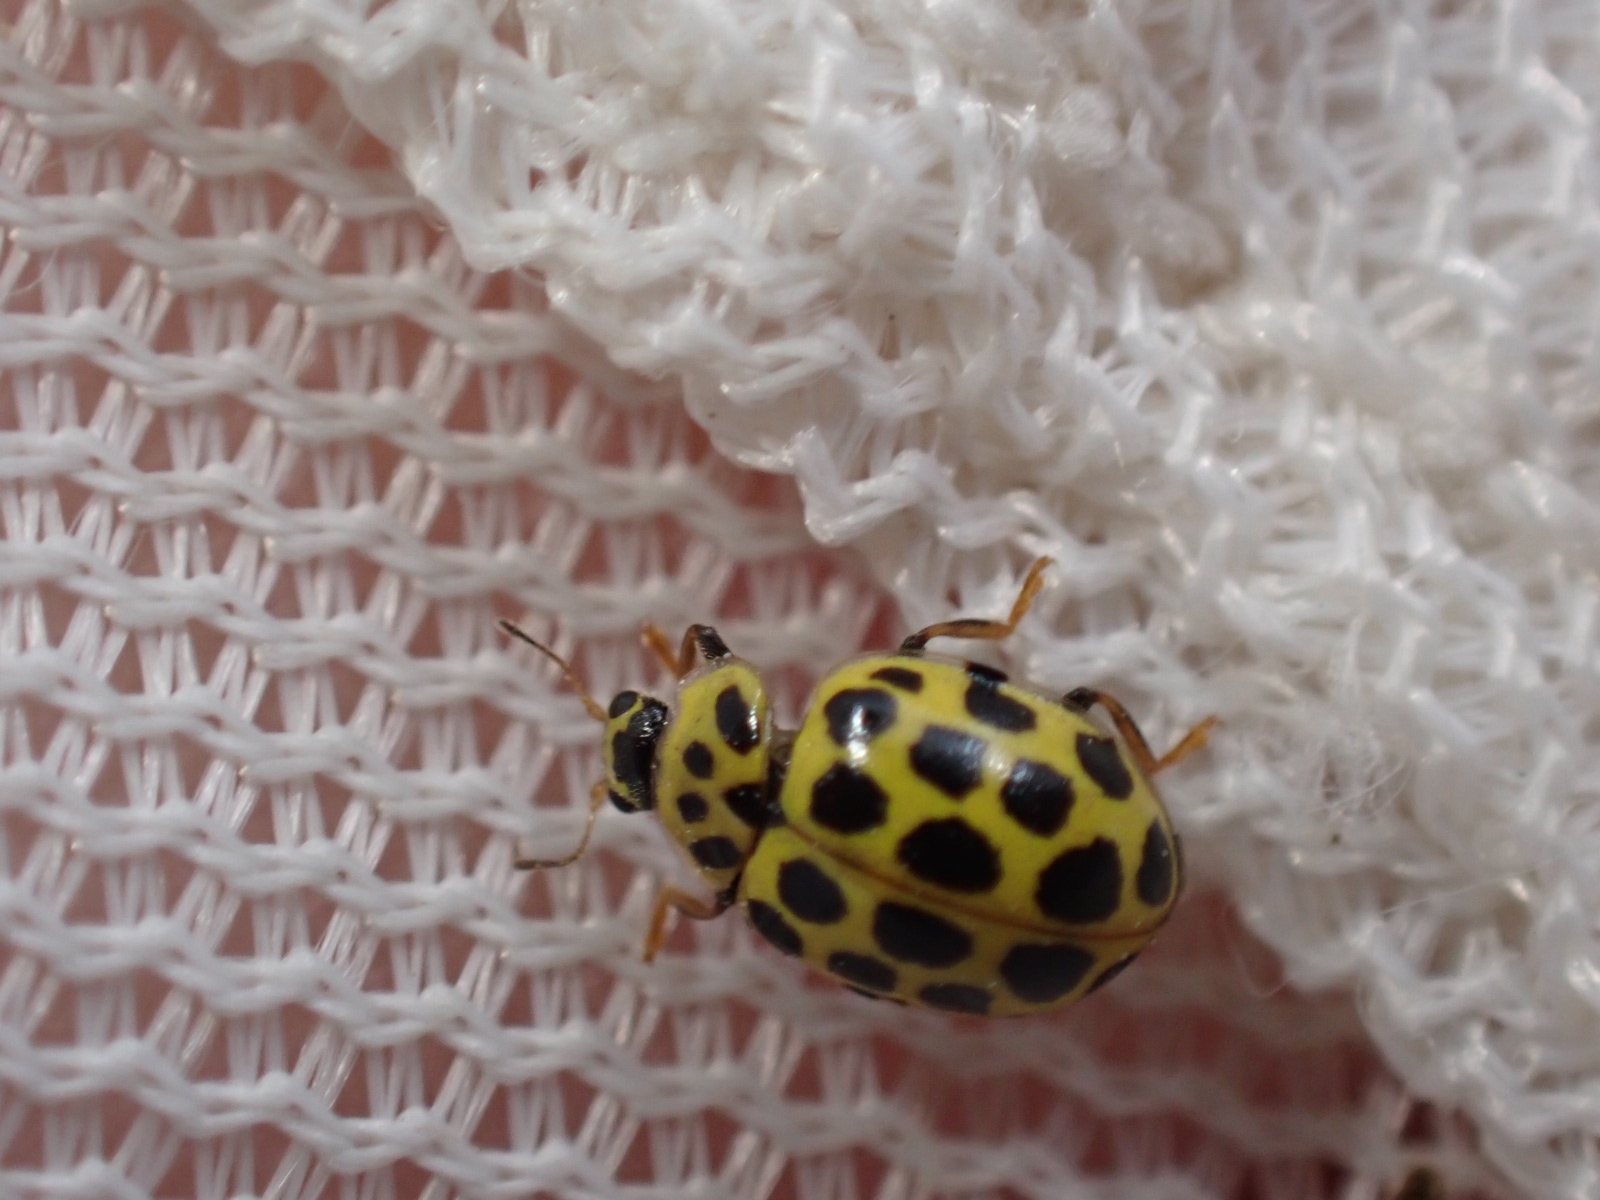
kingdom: Animalia
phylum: Arthropoda
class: Insecta
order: Coleoptera
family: Coccinellidae
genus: Psyllobora
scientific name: Psyllobora vigintiduopunctata
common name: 22-spot ladybird
